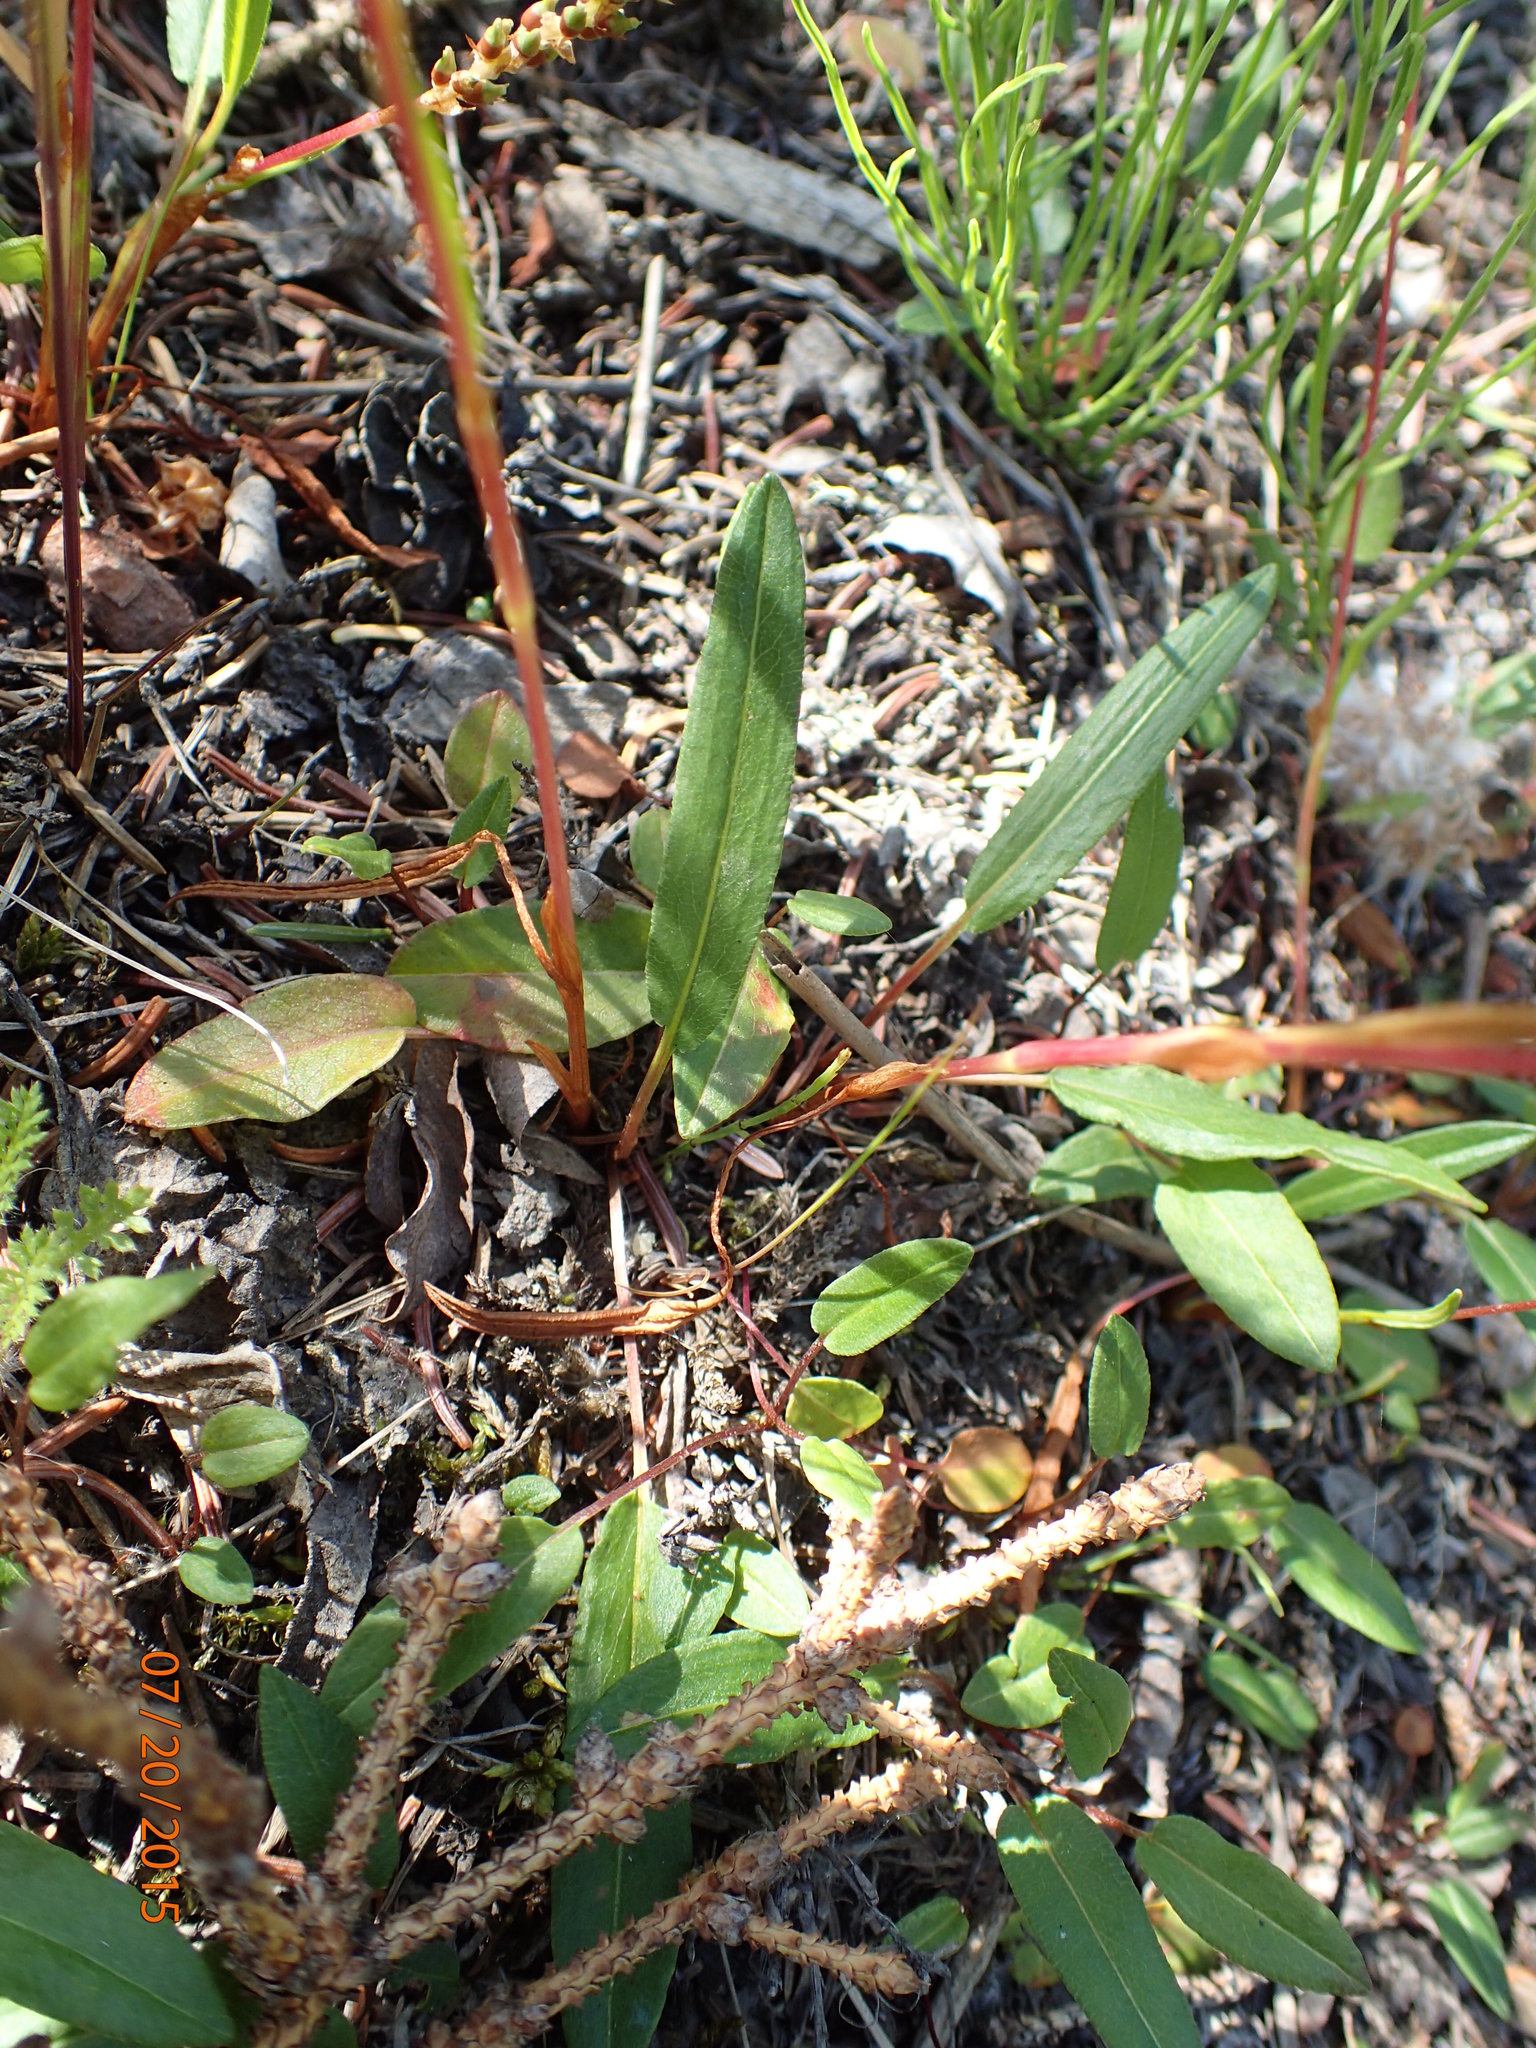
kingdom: Plantae
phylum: Tracheophyta
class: Magnoliopsida
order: Caryophyllales
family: Polygonaceae
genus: Bistorta
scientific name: Bistorta vivipara
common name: Alpine bistort
